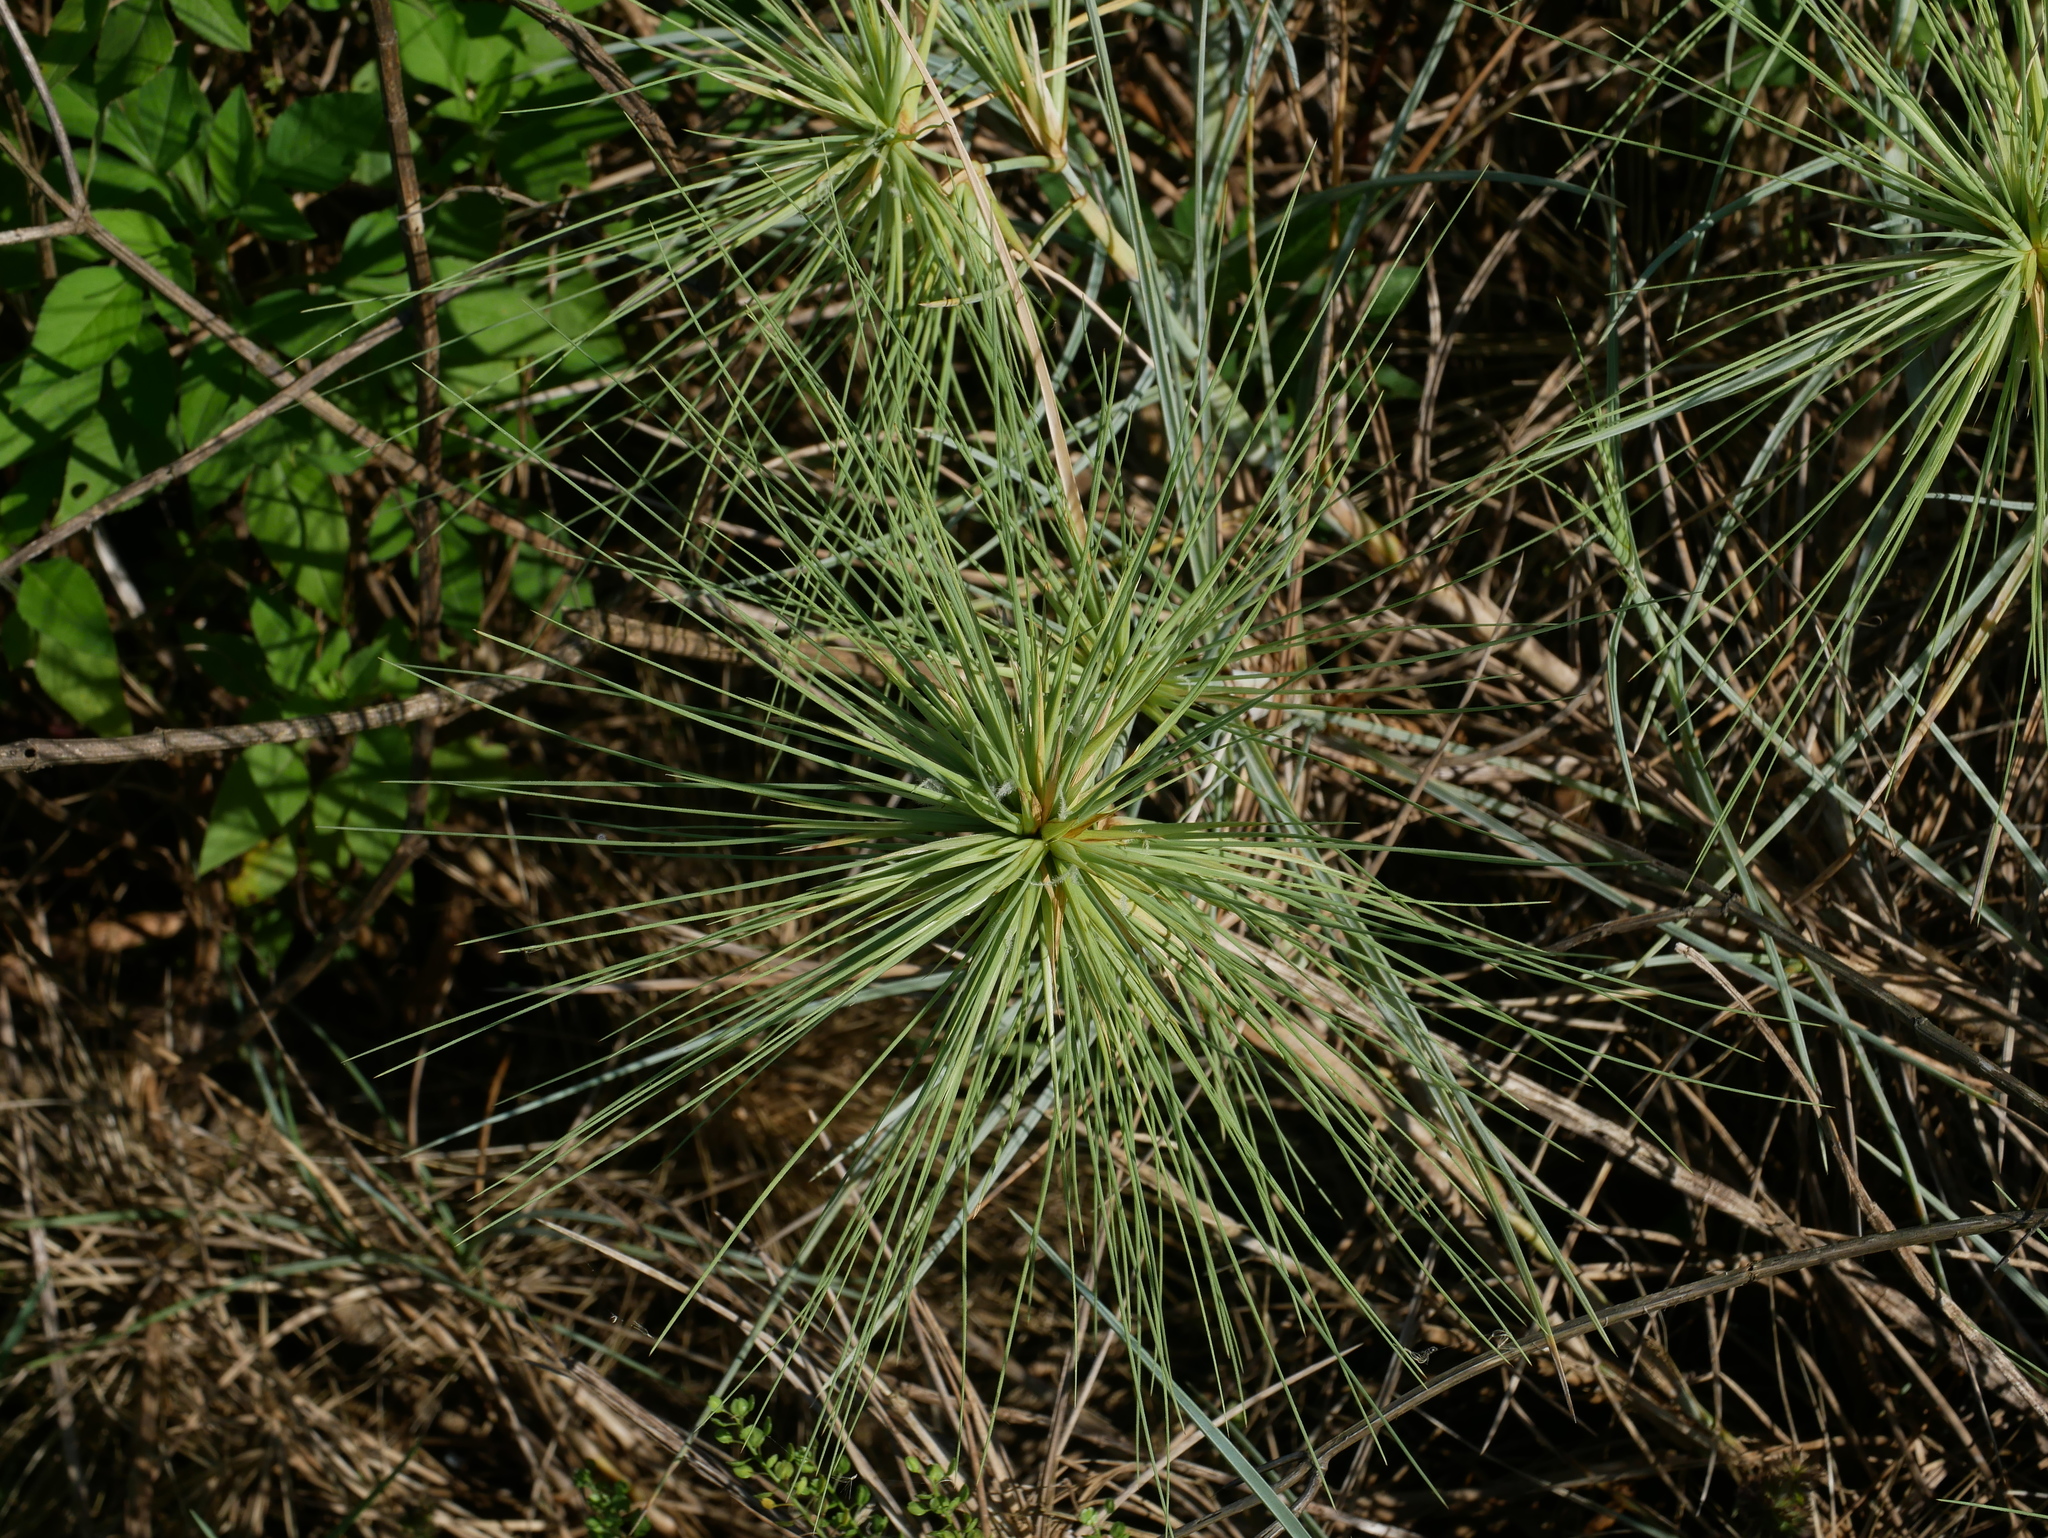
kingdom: Plantae
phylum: Tracheophyta
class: Liliopsida
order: Poales
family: Poaceae
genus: Spinifex
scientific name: Spinifex littoreus
